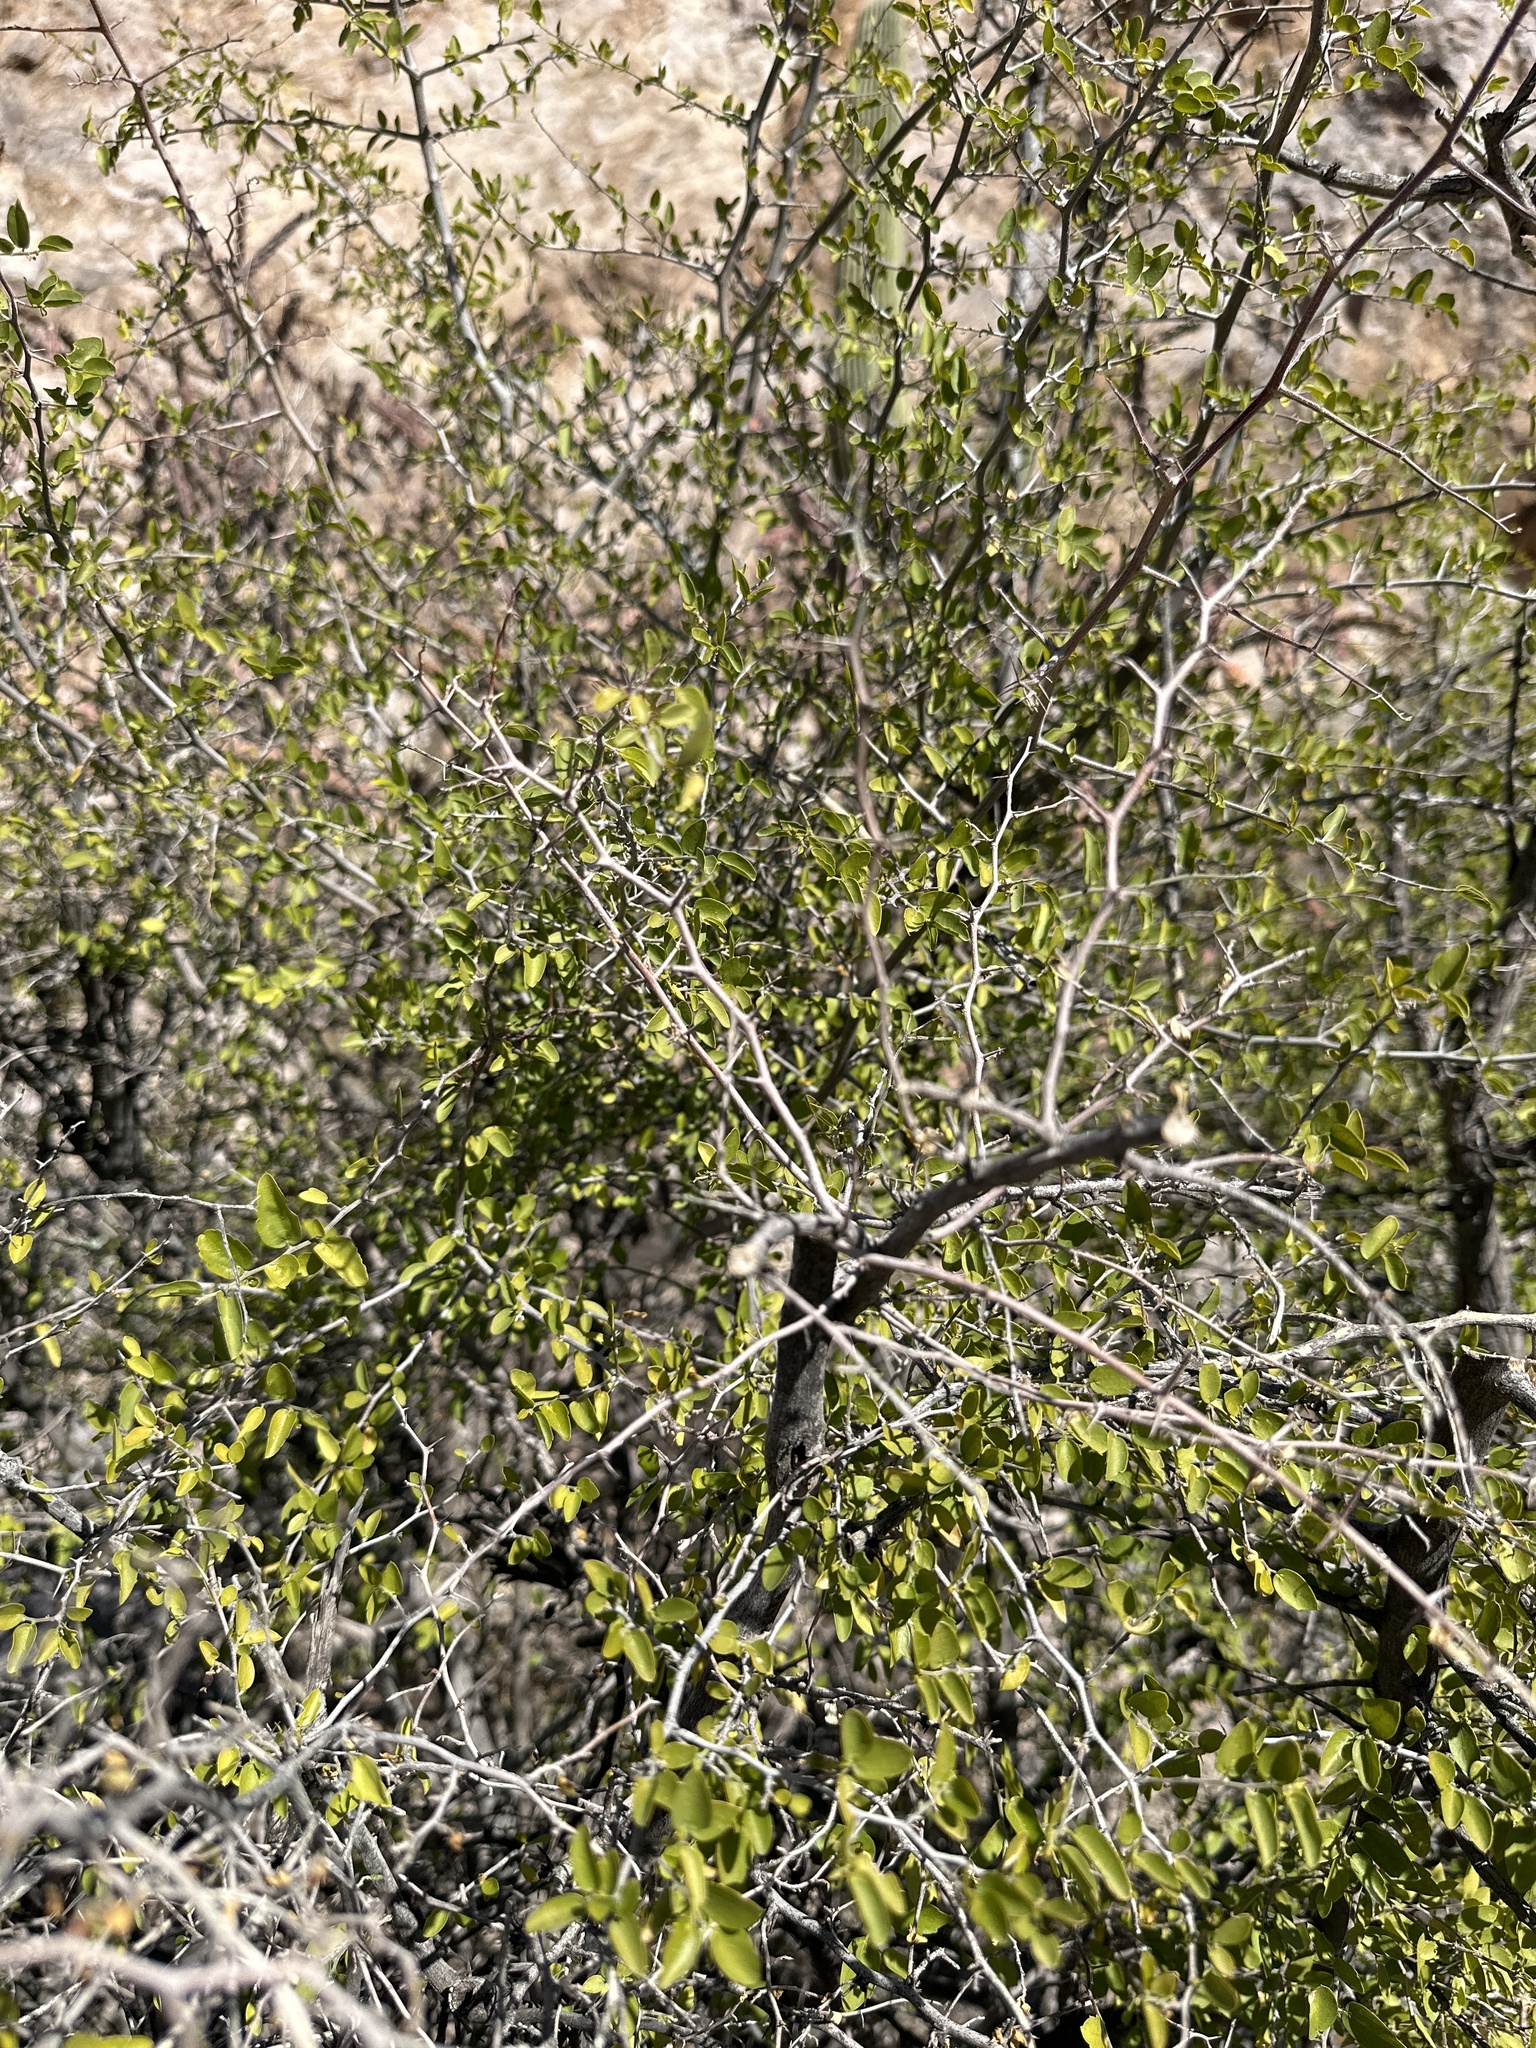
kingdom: Plantae
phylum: Tracheophyta
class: Magnoliopsida
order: Rosales
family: Cannabaceae
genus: Celtis
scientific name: Celtis pallida
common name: Desert hackberry
